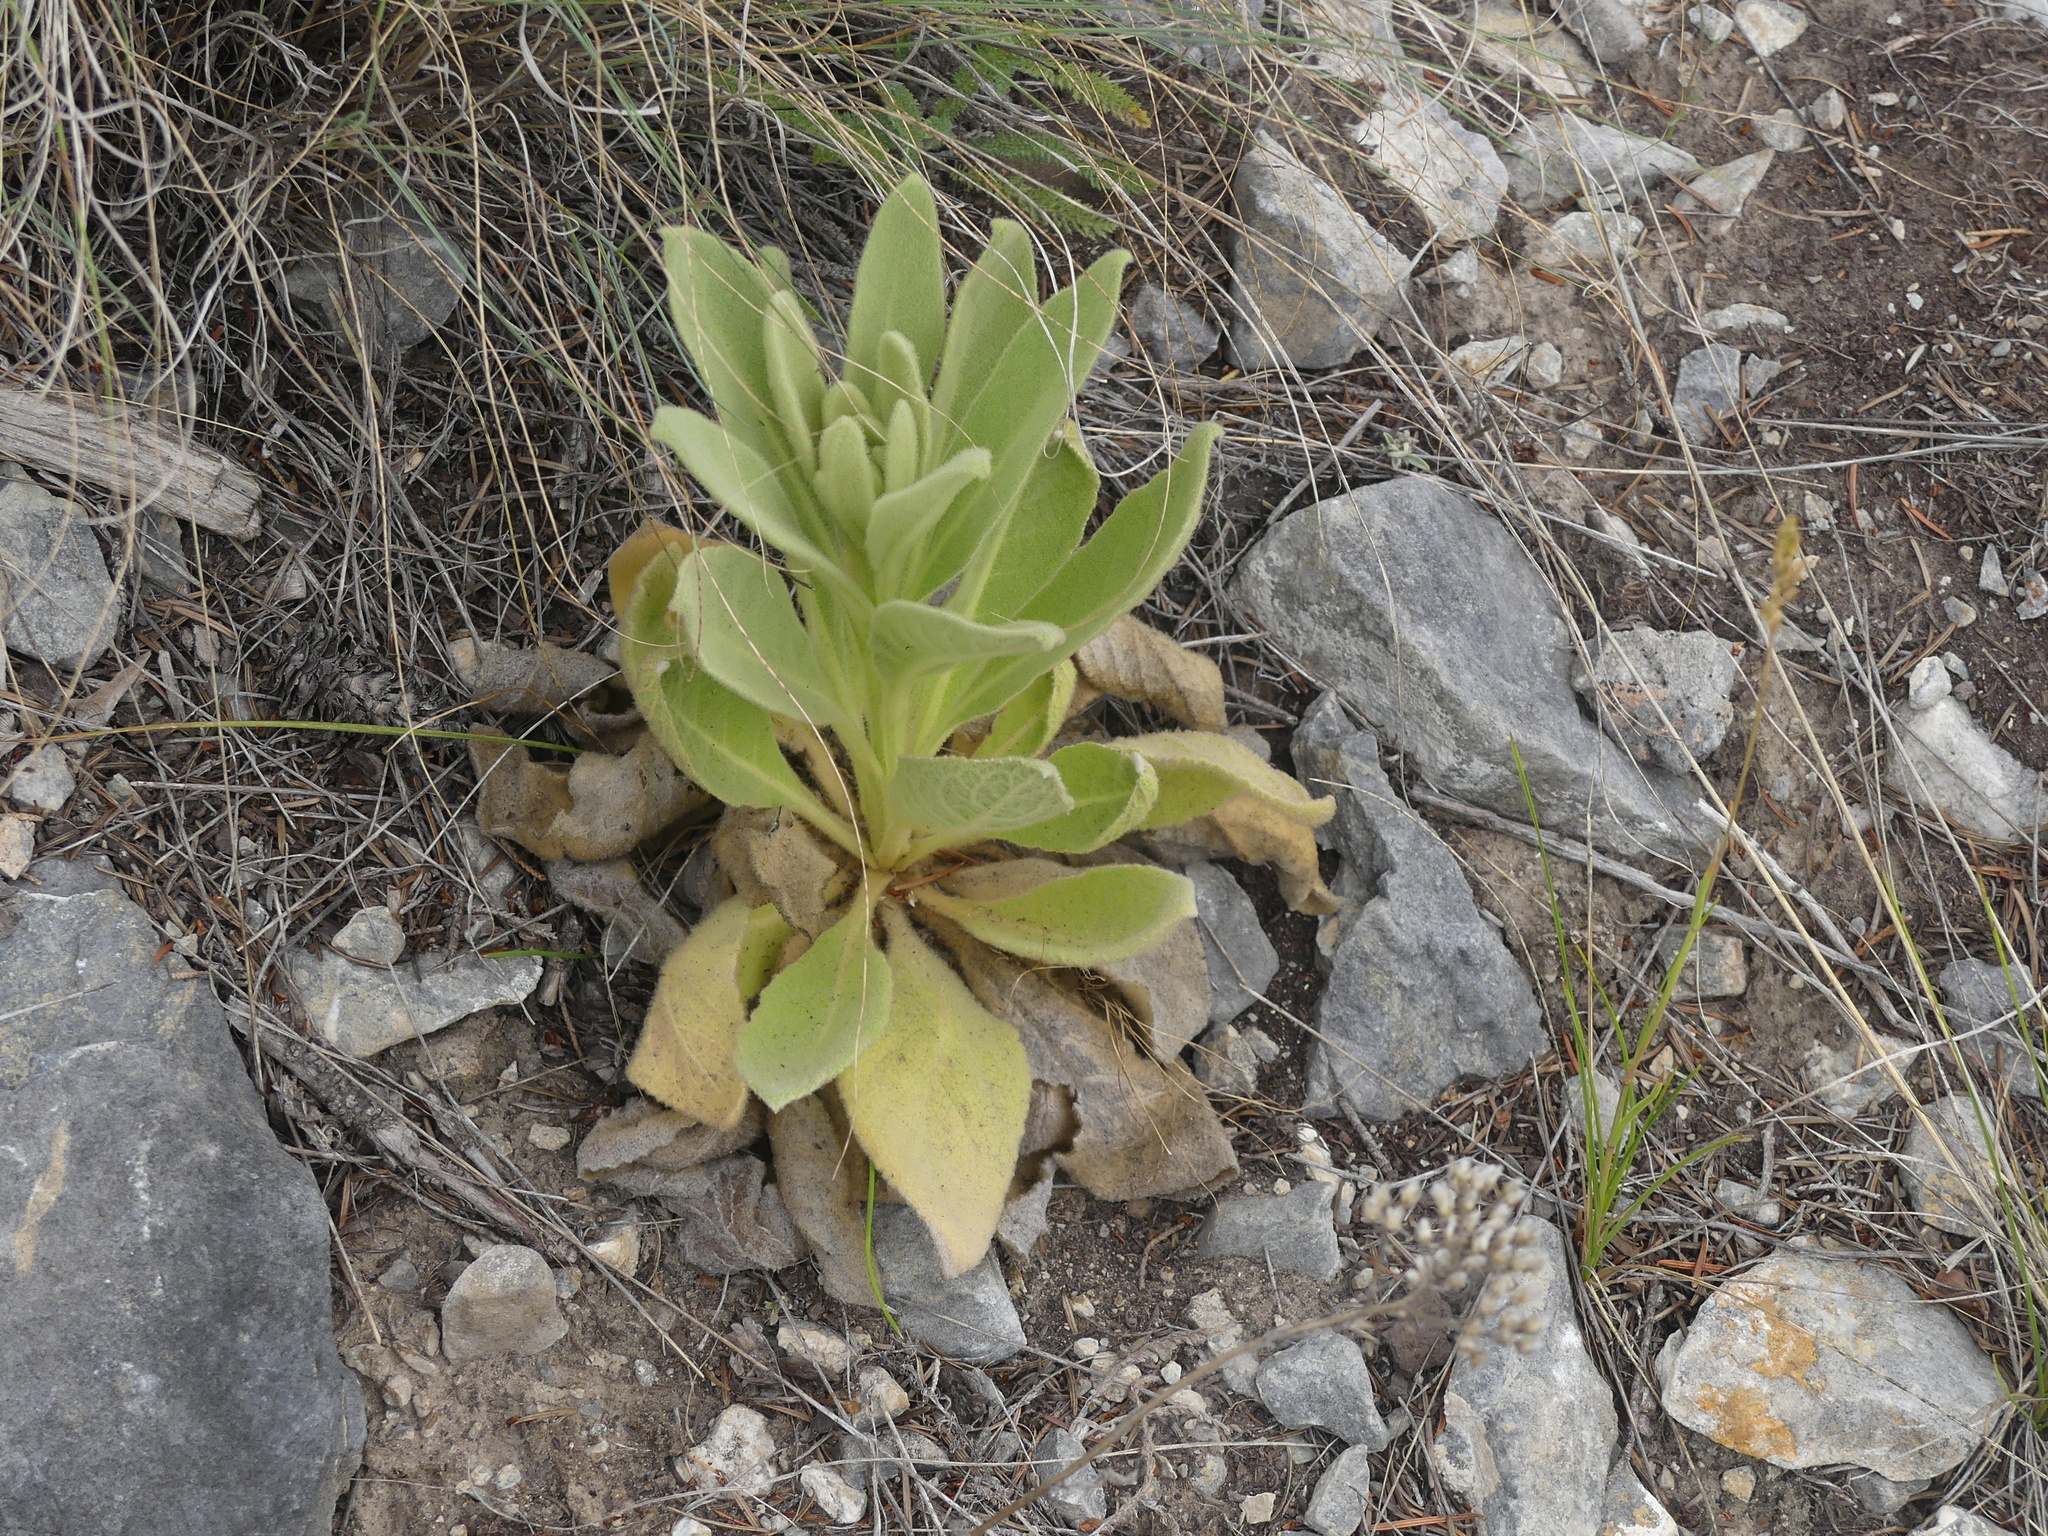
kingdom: Plantae
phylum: Tracheophyta
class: Magnoliopsida
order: Lamiales
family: Scrophulariaceae
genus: Verbascum
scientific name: Verbascum thapsus
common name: Common mullein
